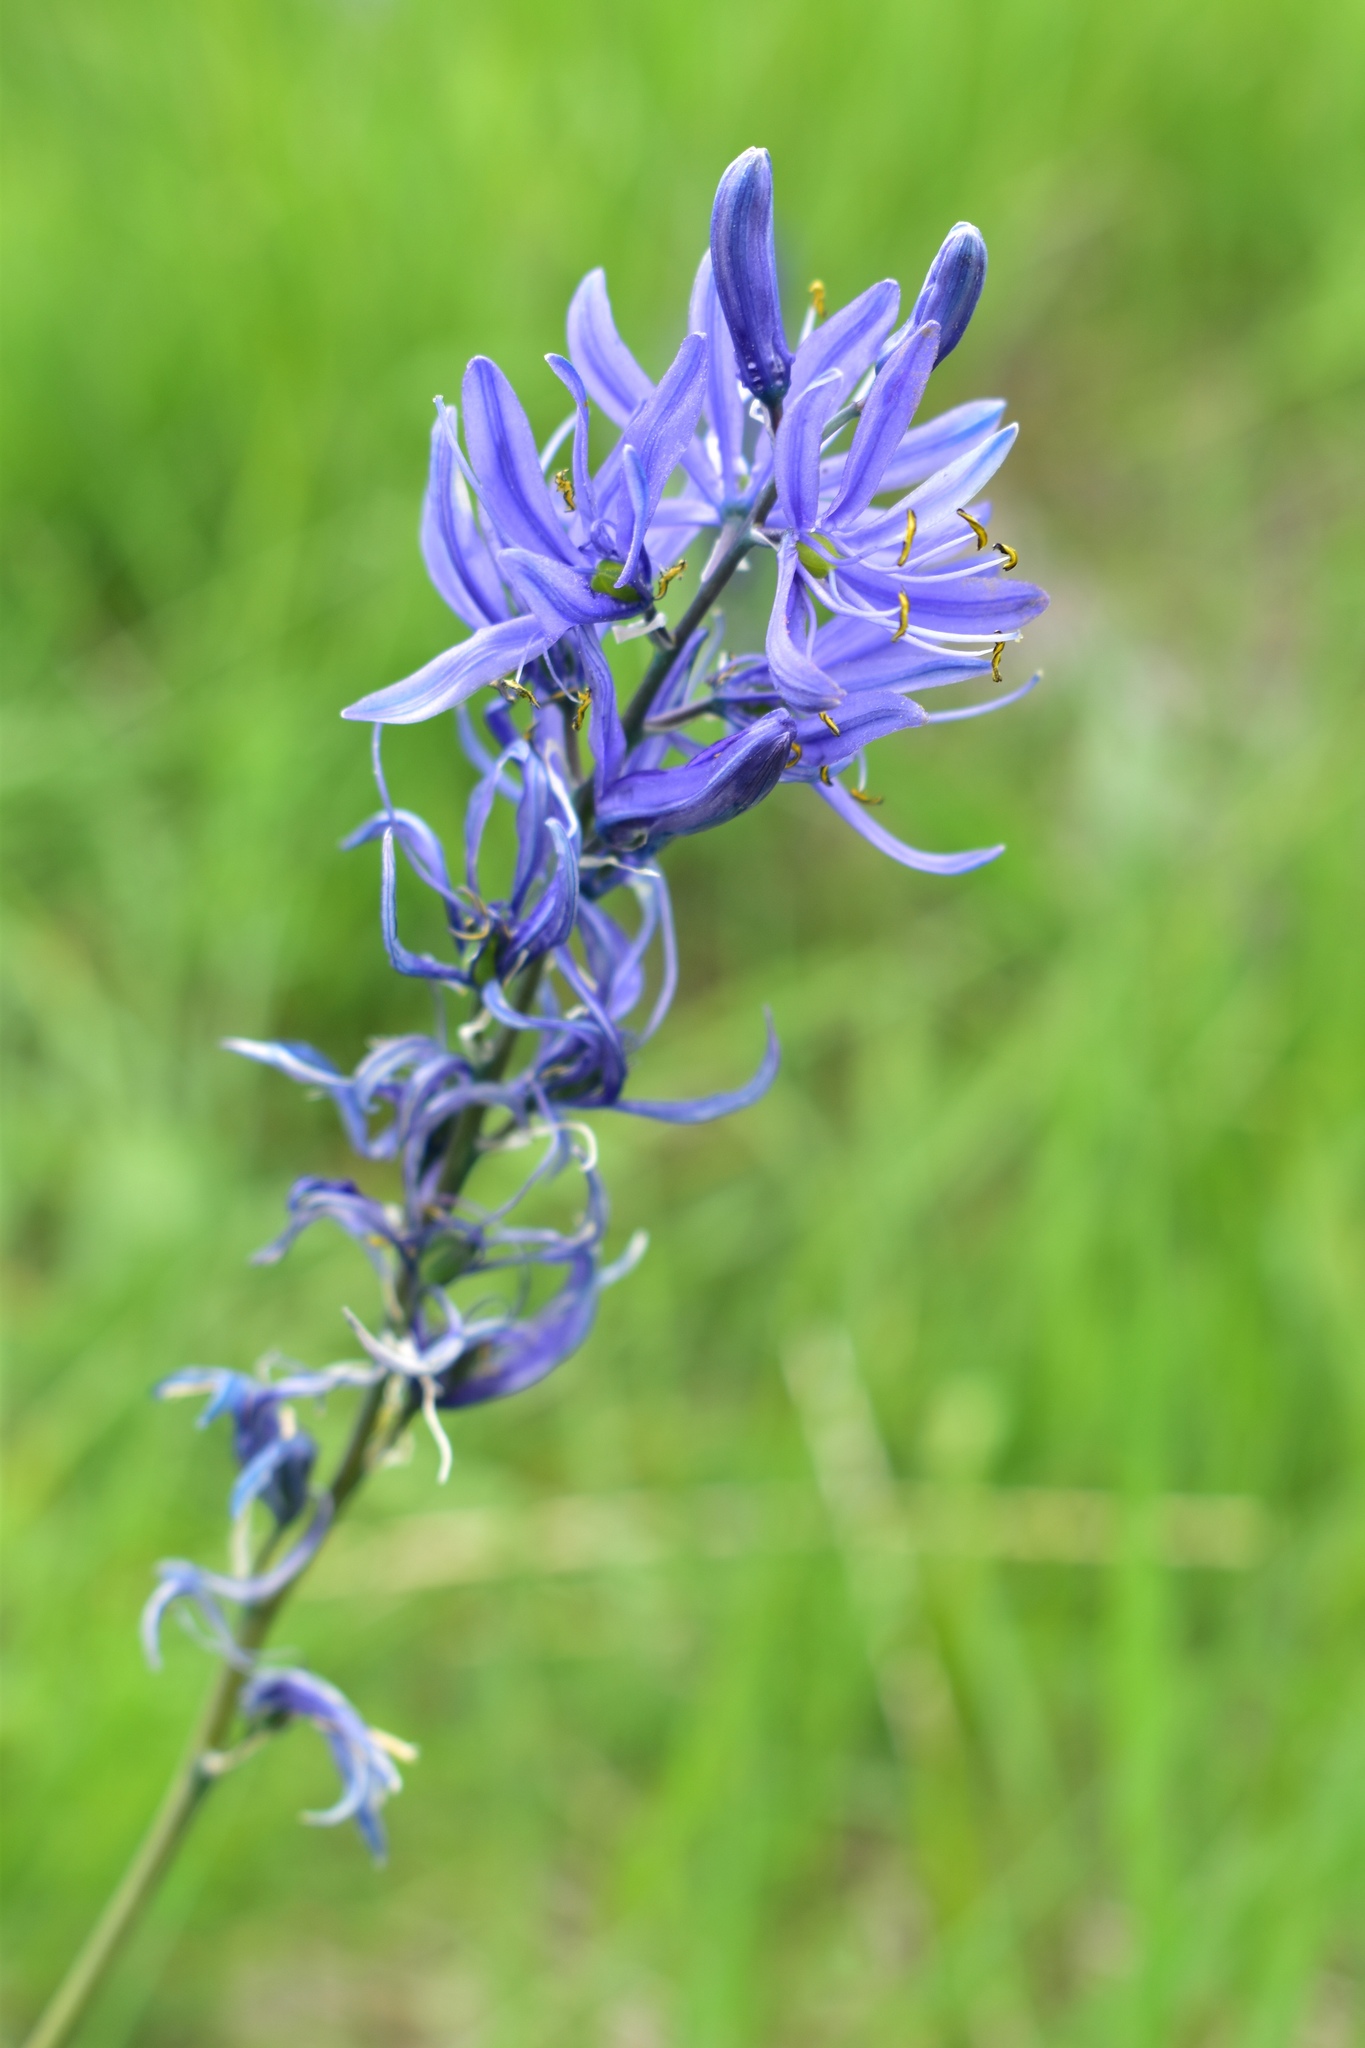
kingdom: Plantae
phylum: Tracheophyta
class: Liliopsida
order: Asparagales
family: Asparagaceae
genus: Camassia
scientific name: Camassia quamash
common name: Common camas
